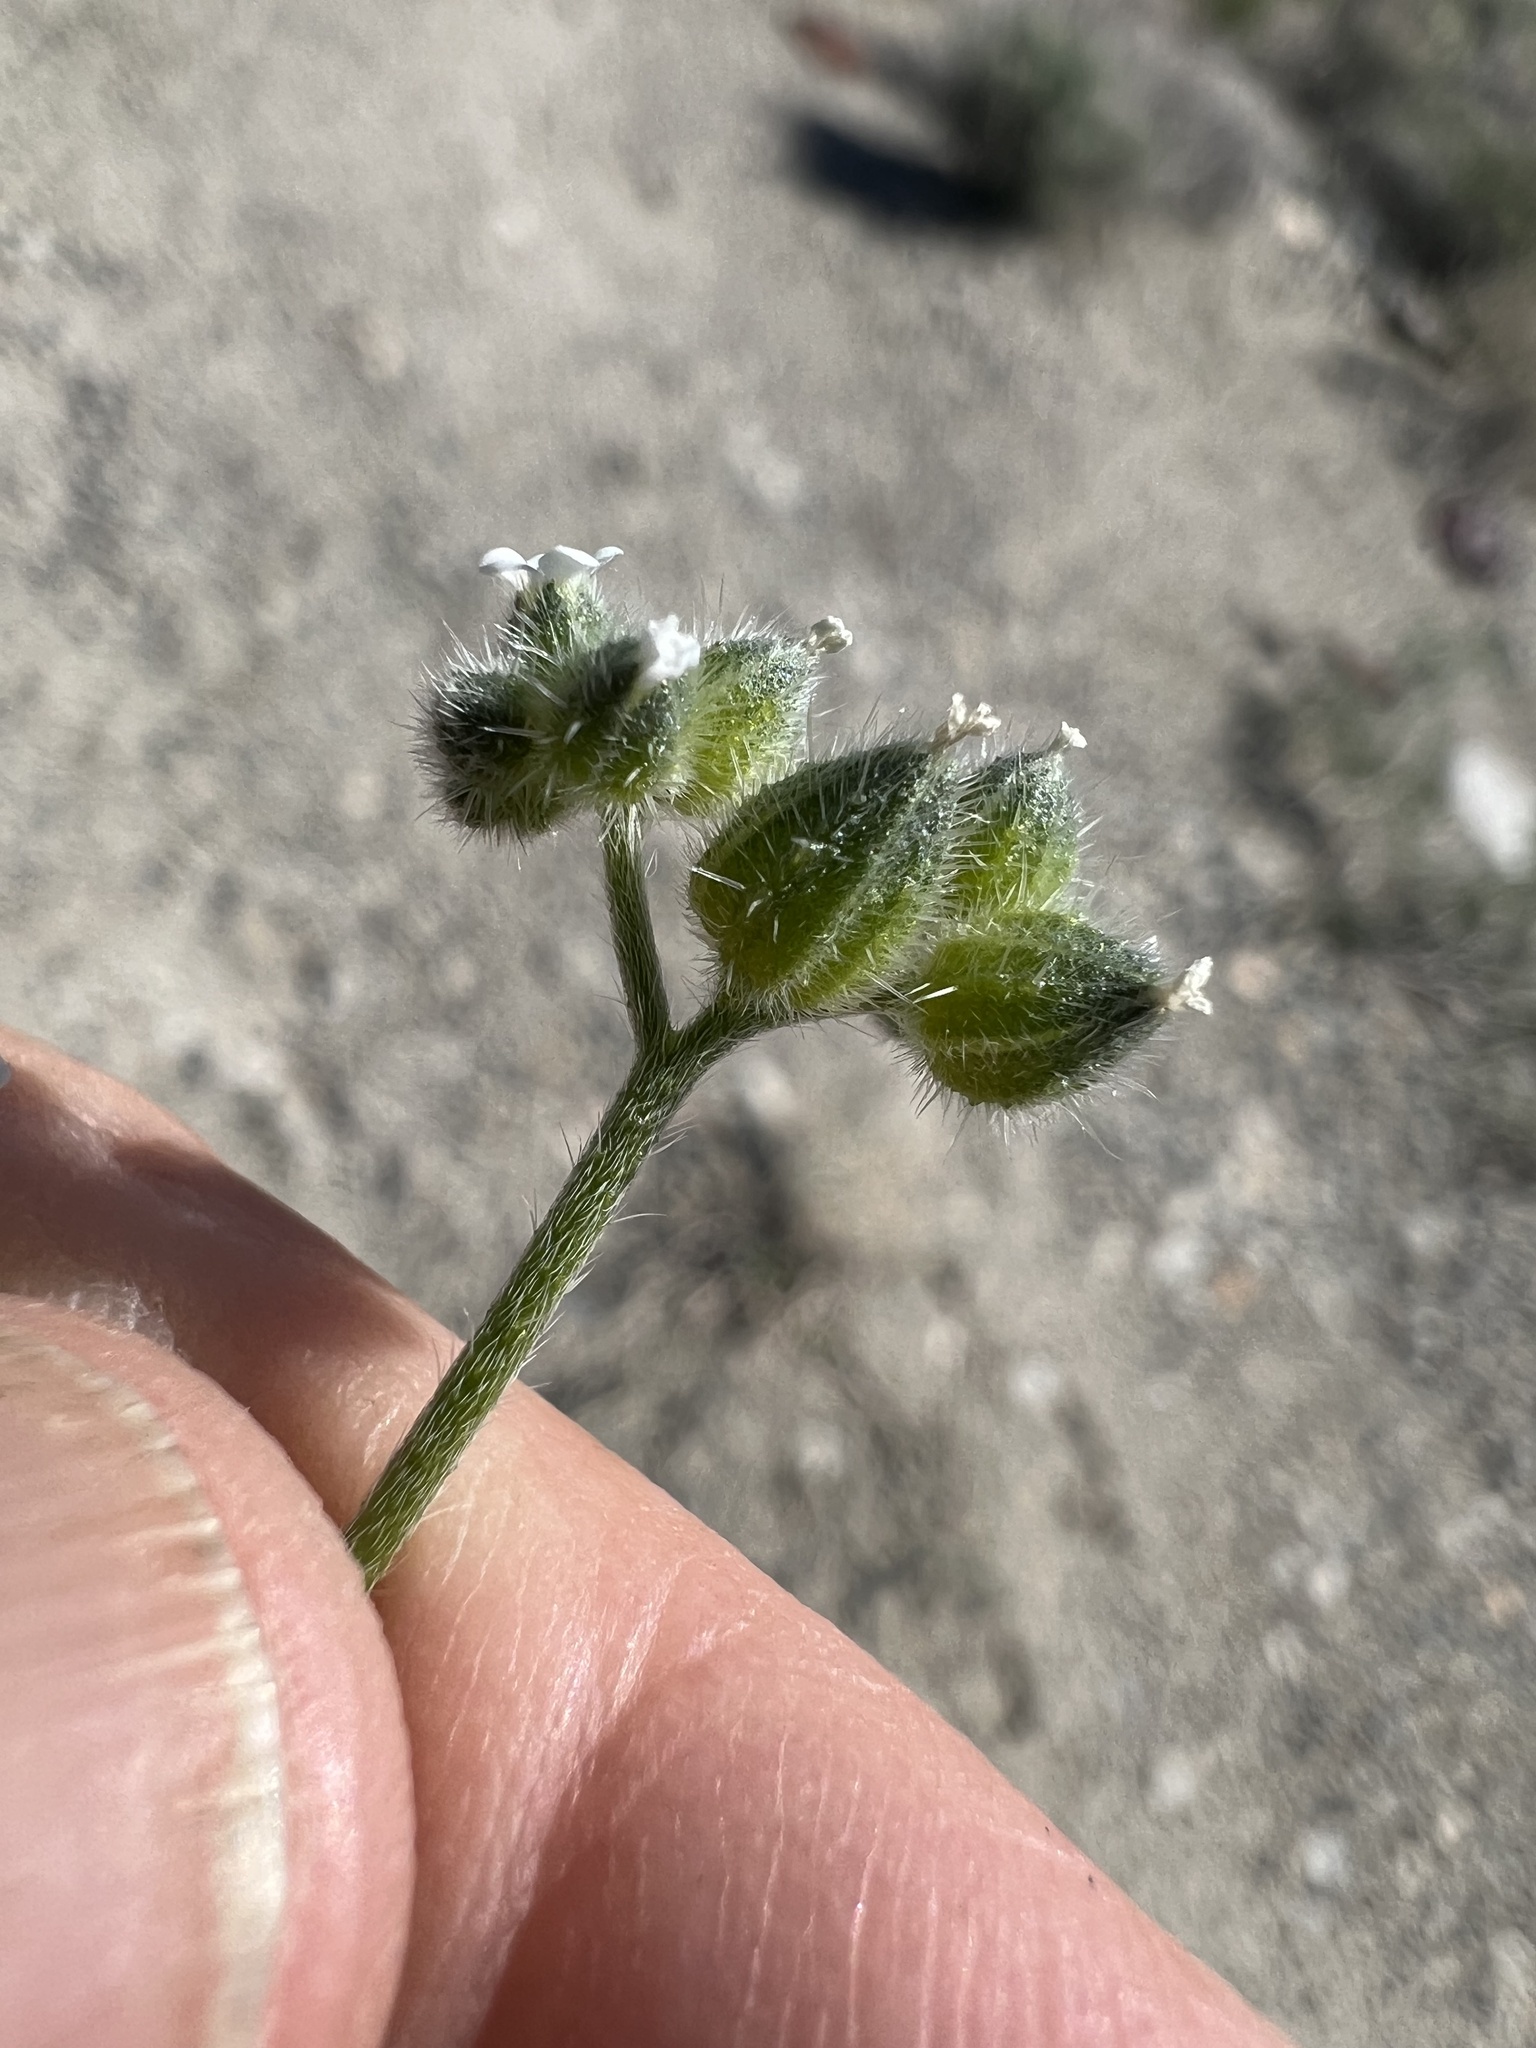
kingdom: Plantae
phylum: Tracheophyta
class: Magnoliopsida
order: Boraginales
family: Boraginaceae
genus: Cryptantha
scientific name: Cryptantha pterocarya
